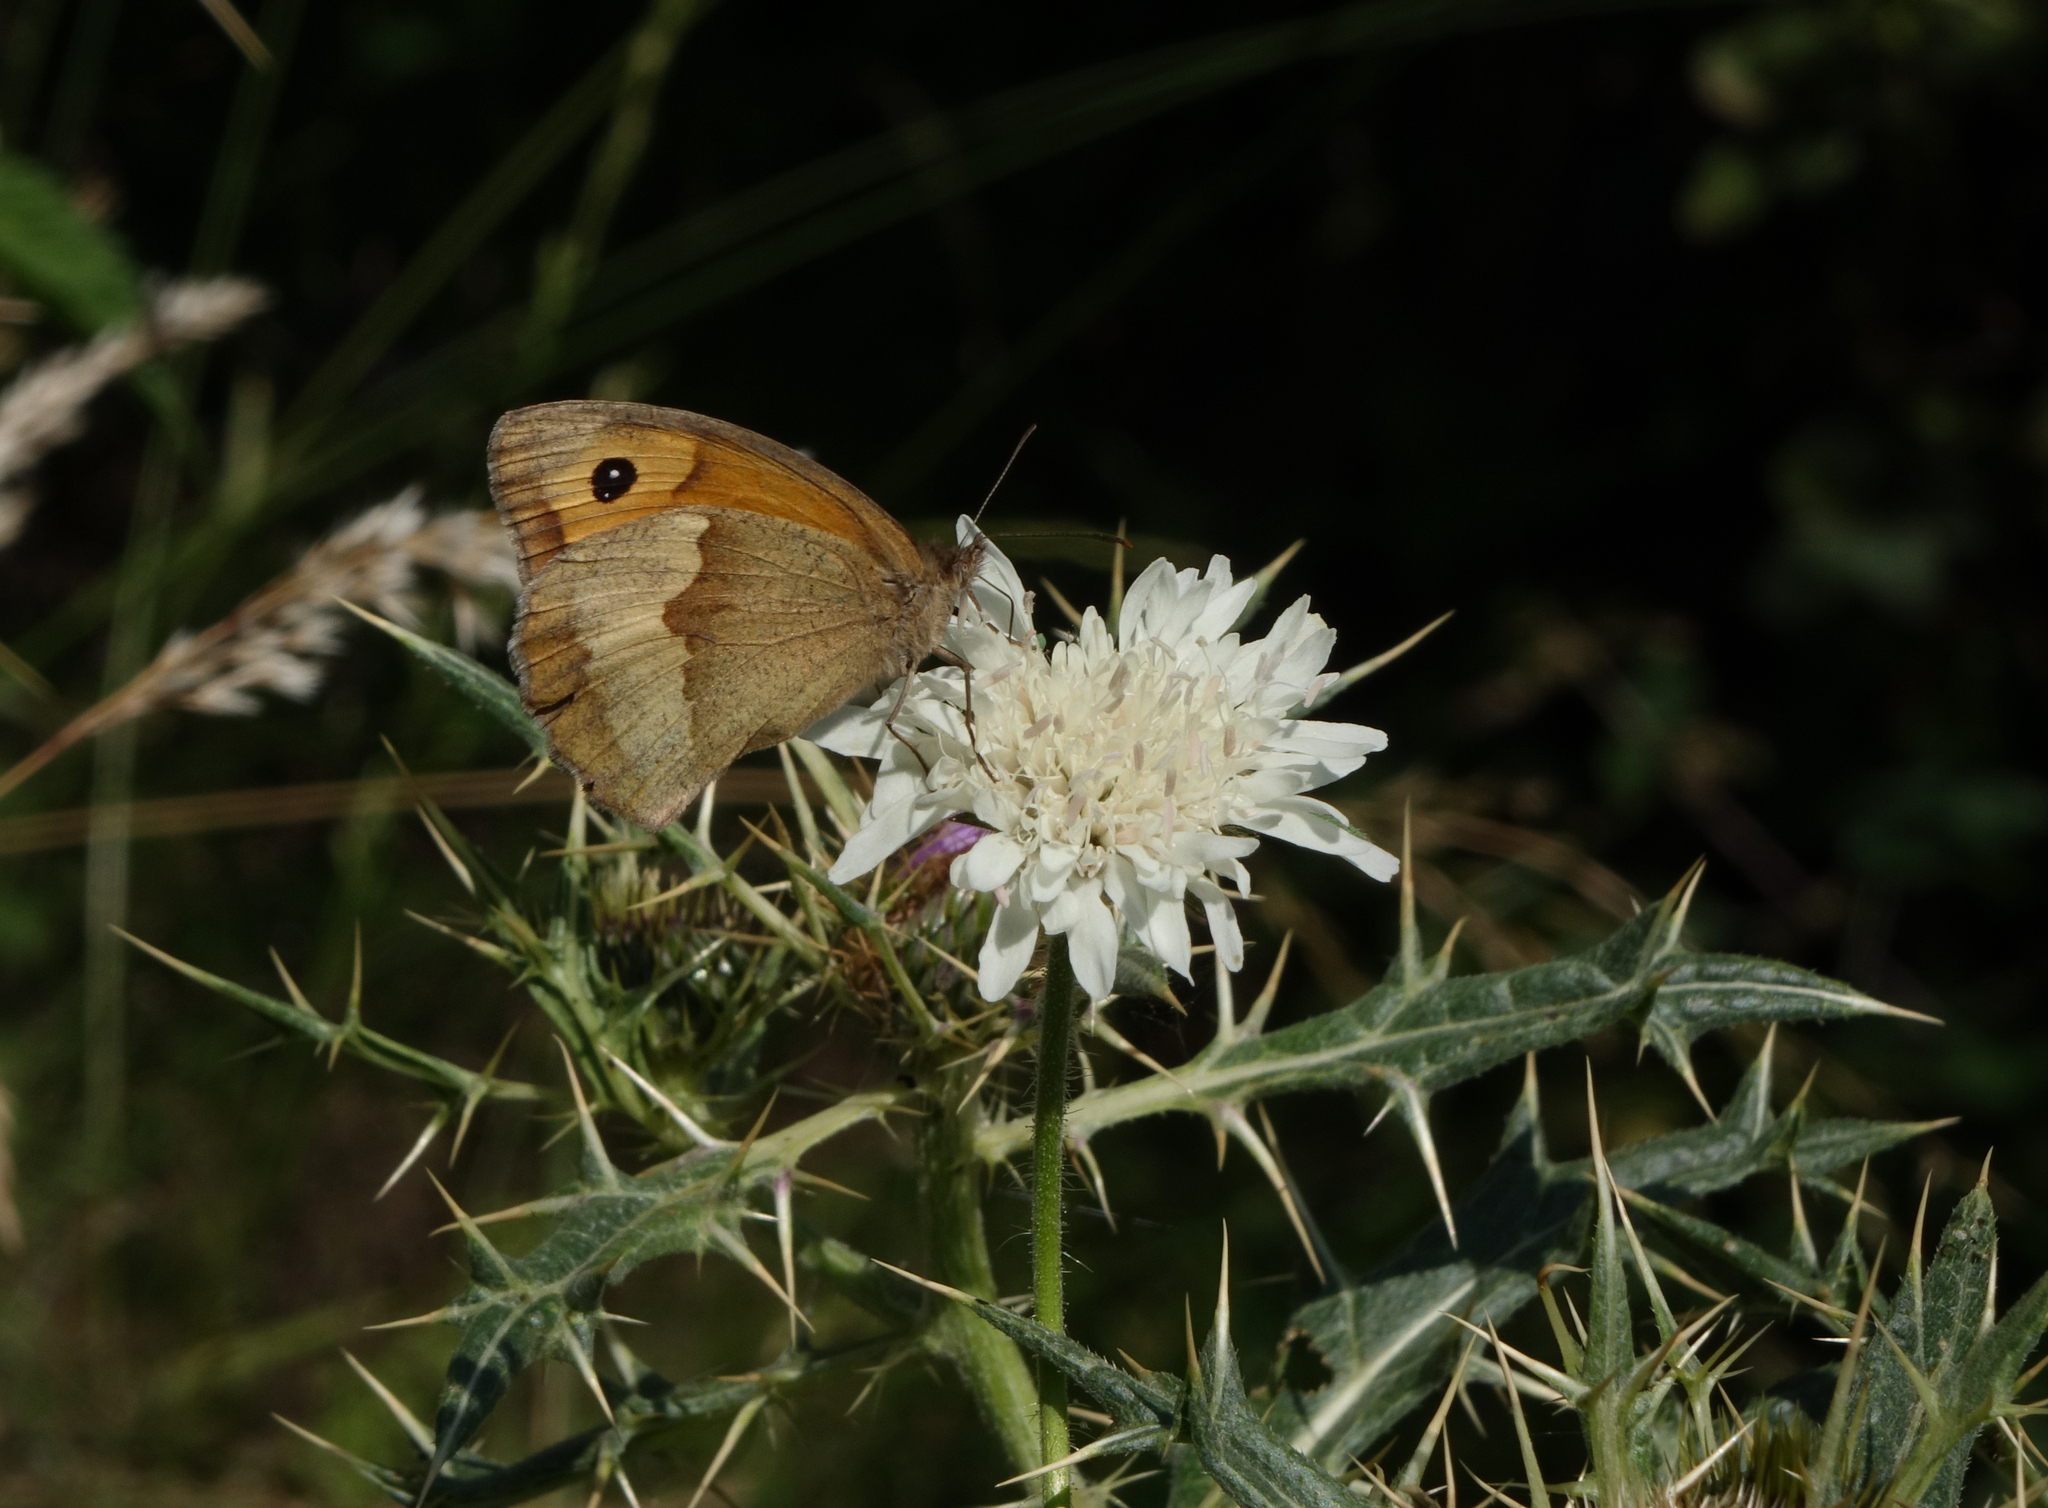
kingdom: Animalia
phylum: Arthropoda
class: Insecta
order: Lepidoptera
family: Nymphalidae
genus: Maniola
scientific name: Maniola jurtina
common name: Meadow brown
